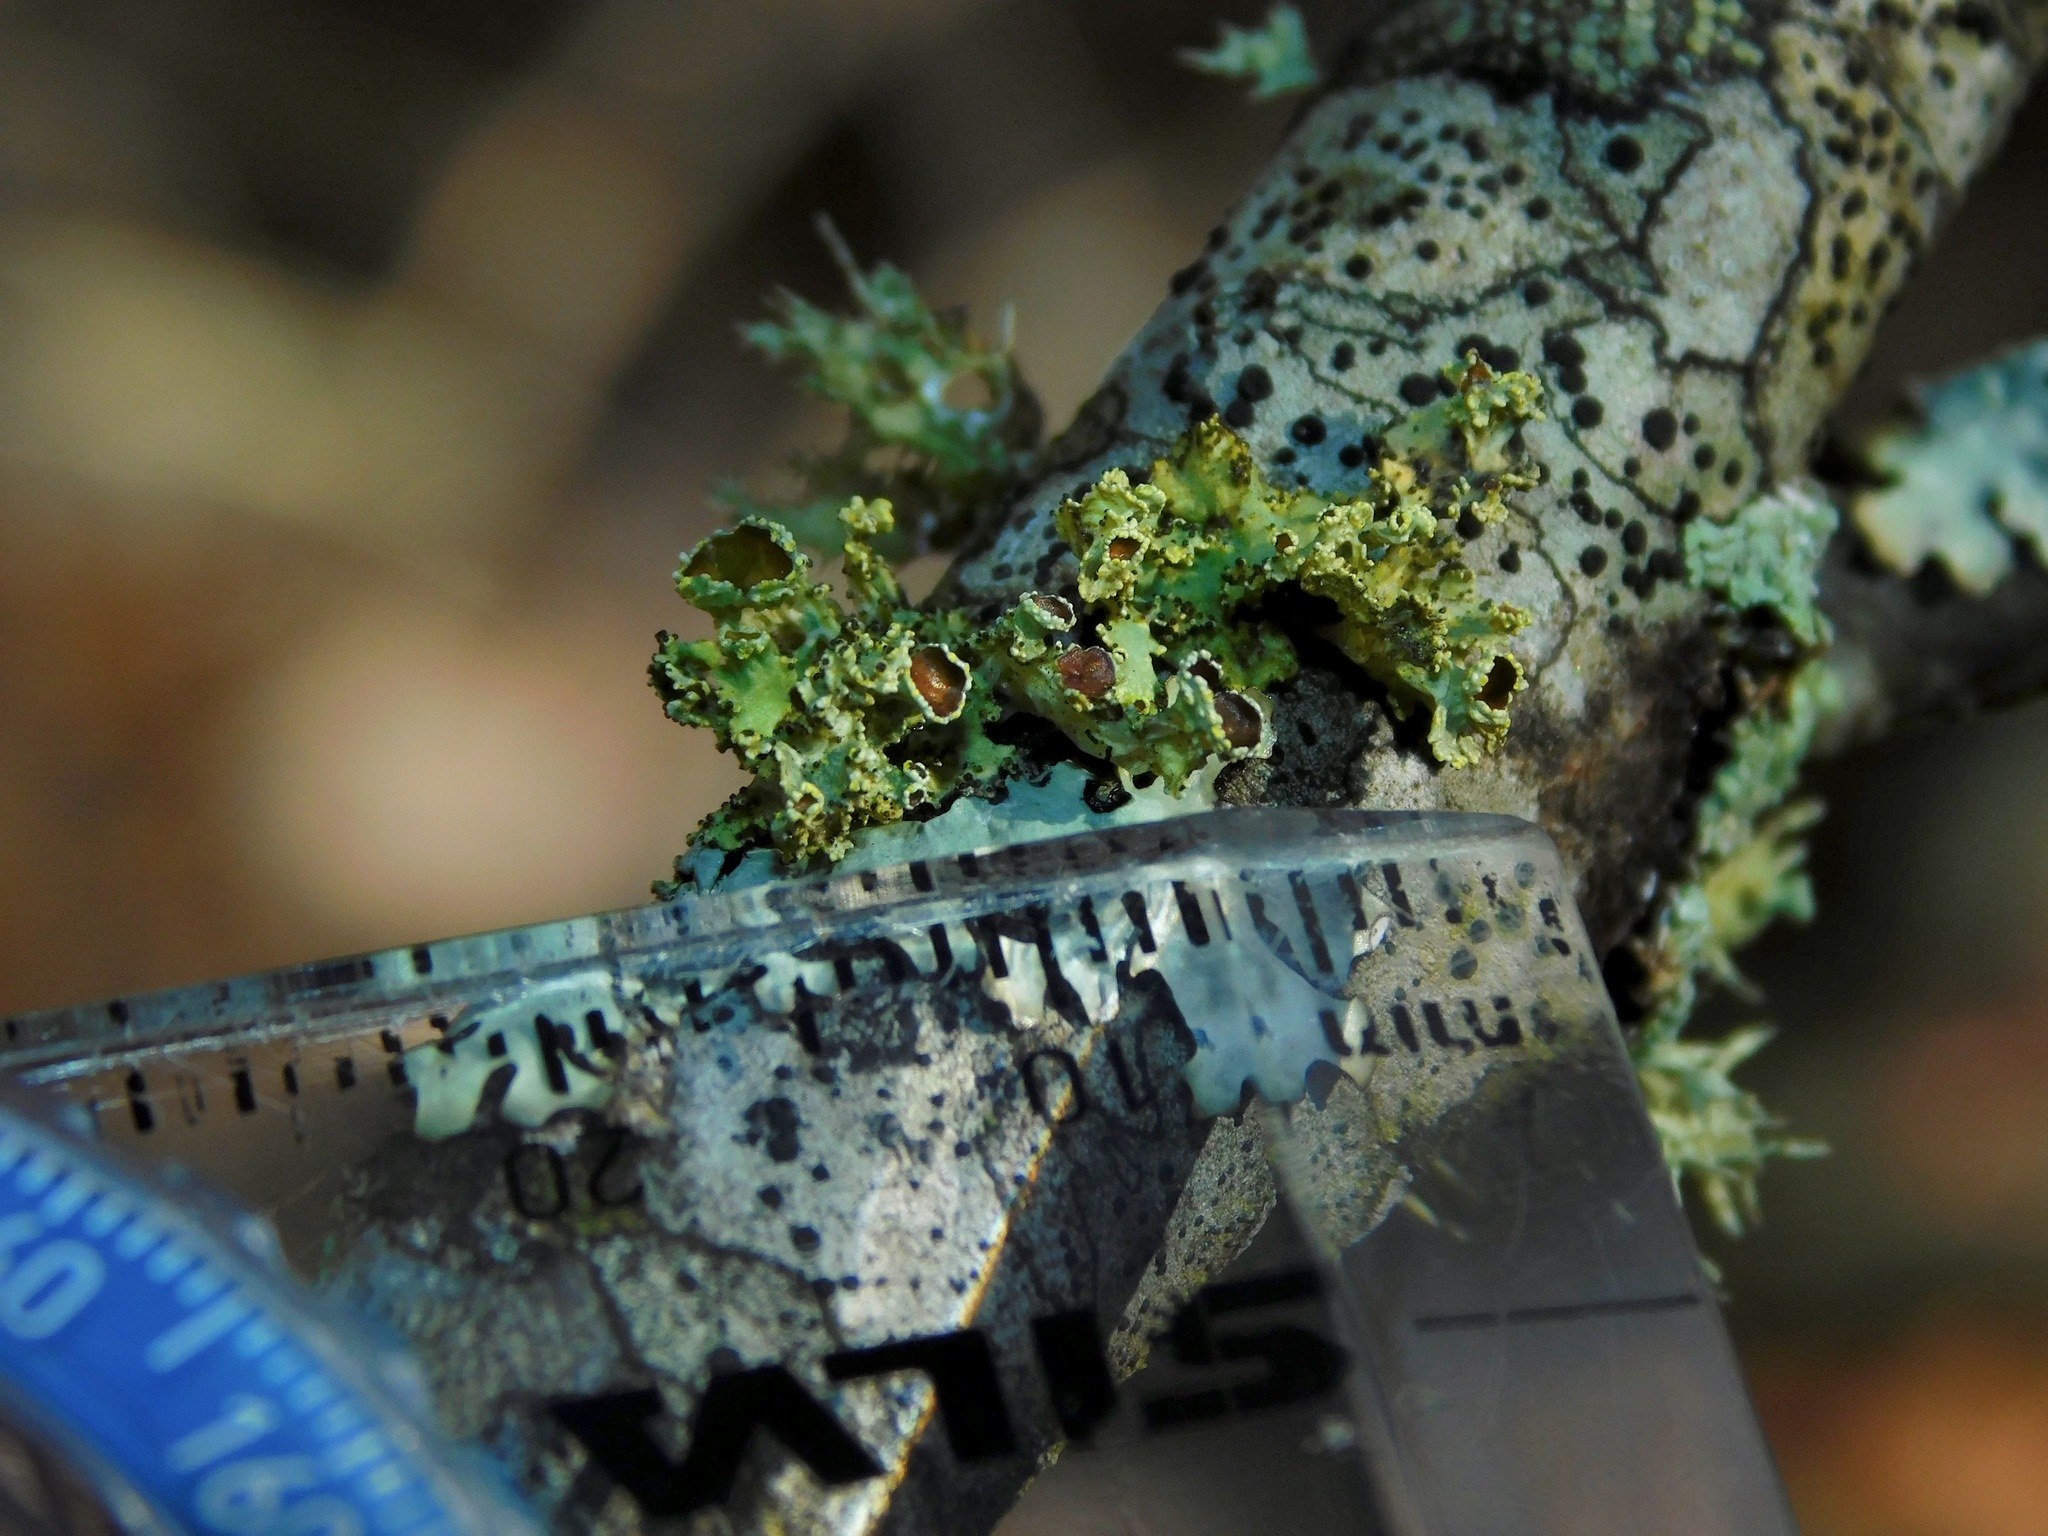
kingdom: Fungi
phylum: Ascomycota
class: Lecanoromycetes
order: Lecanorales
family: Parmeliaceae
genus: Vulpicida
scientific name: Vulpicida viridis
